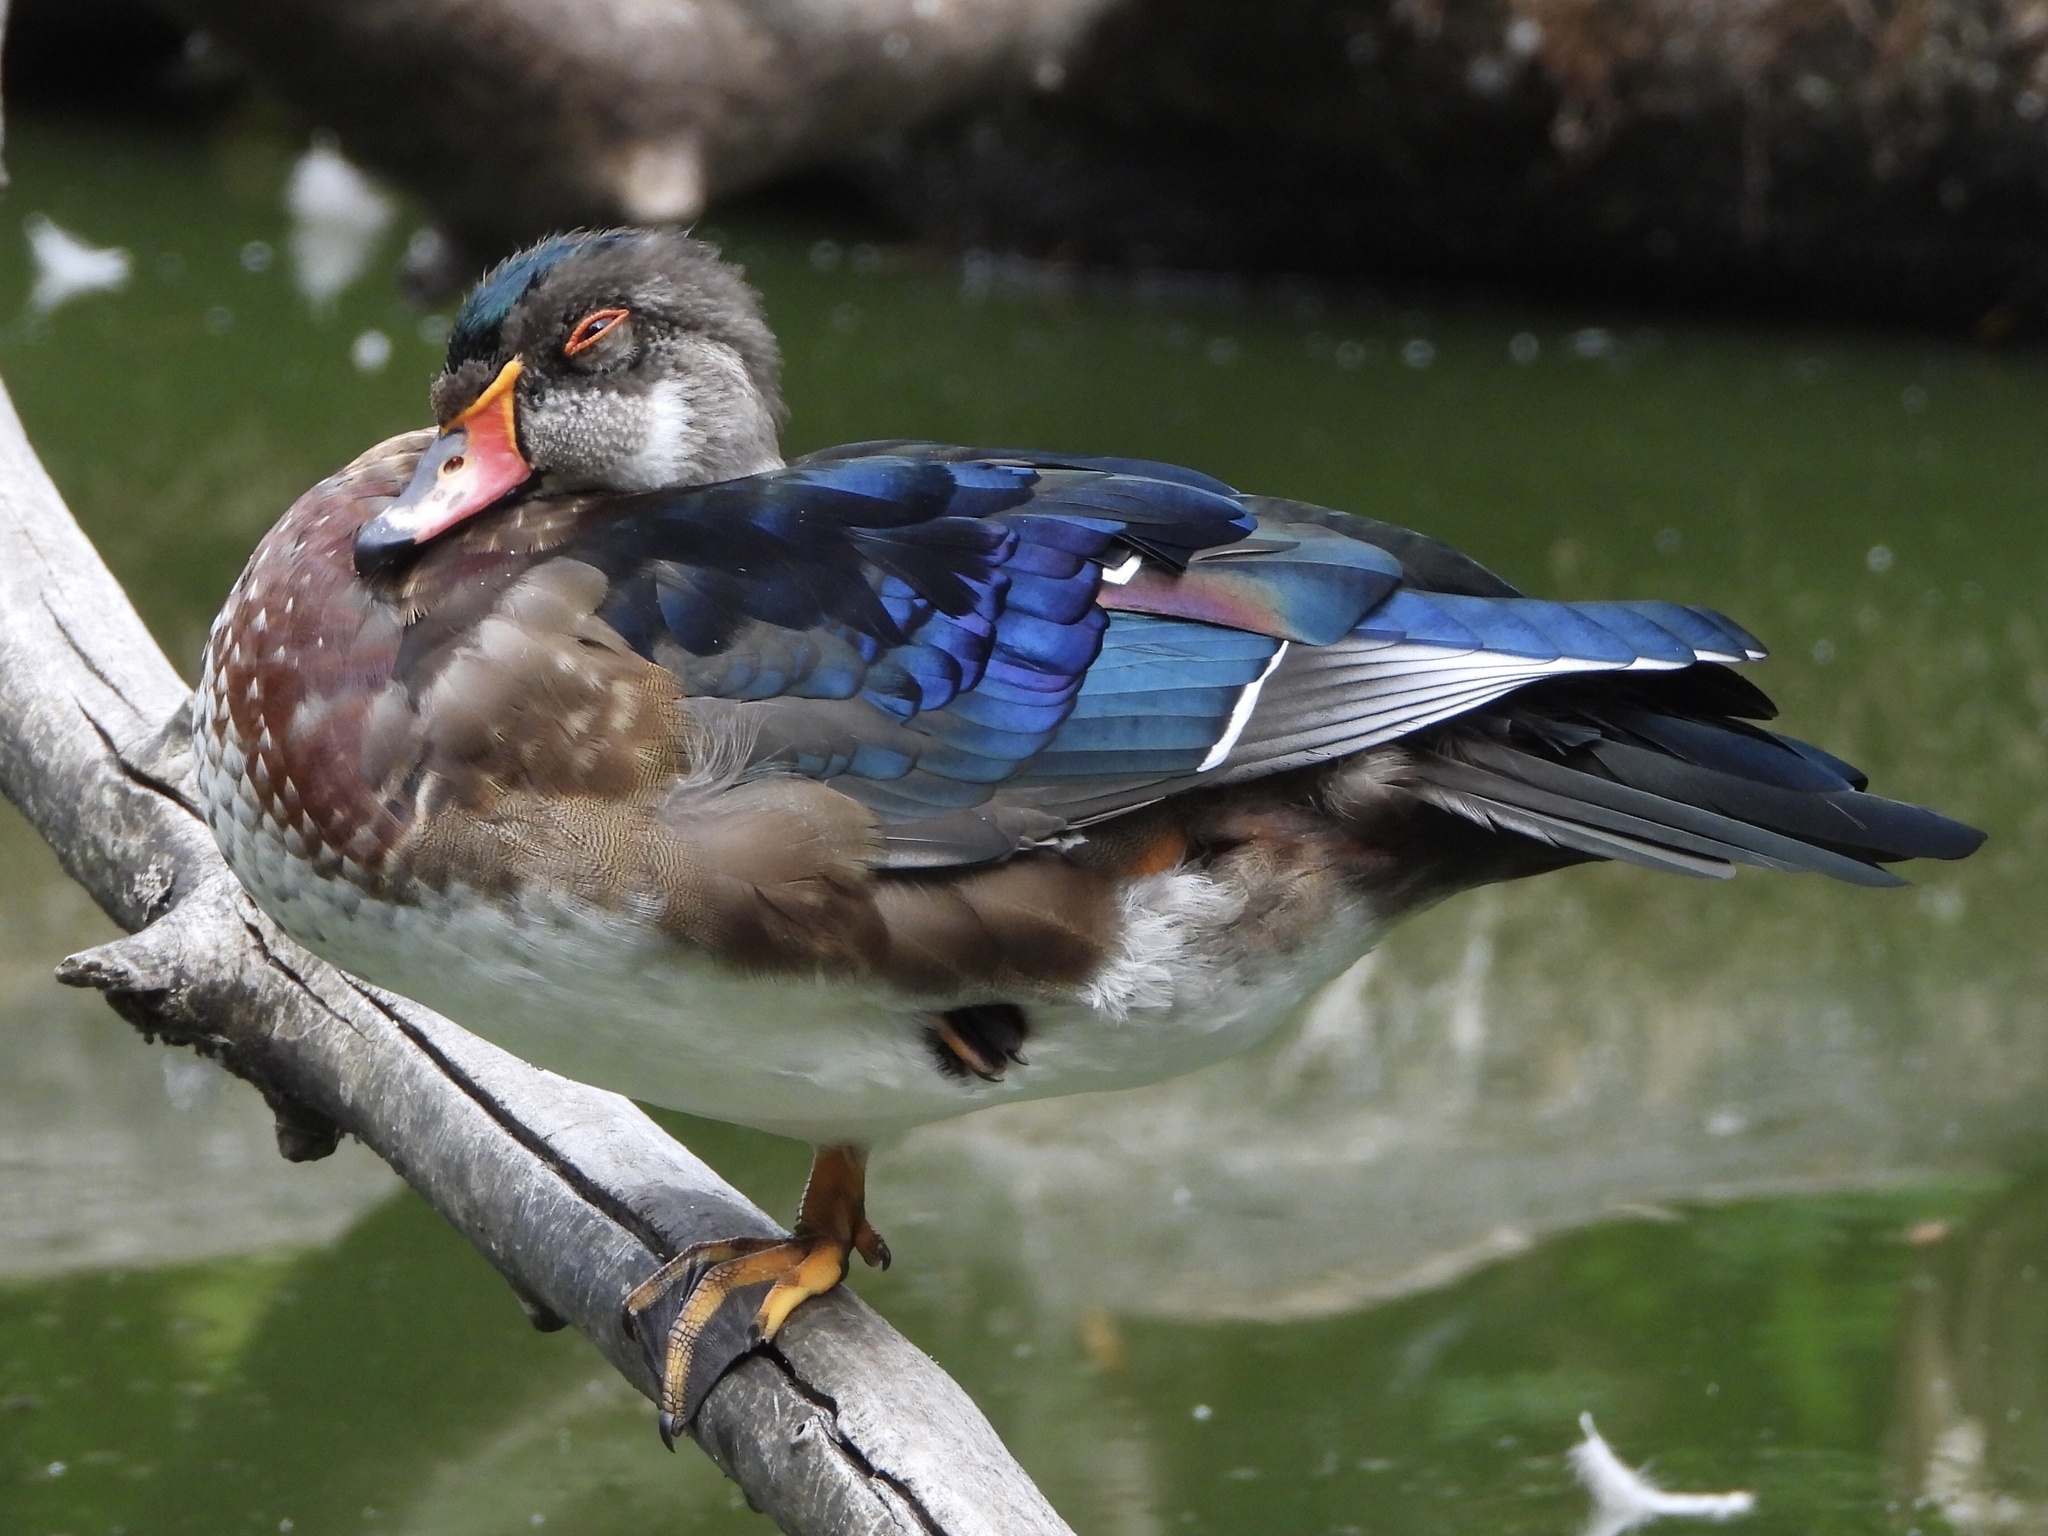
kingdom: Animalia
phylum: Chordata
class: Aves
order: Anseriformes
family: Anatidae
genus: Aix
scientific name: Aix sponsa
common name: Wood duck
